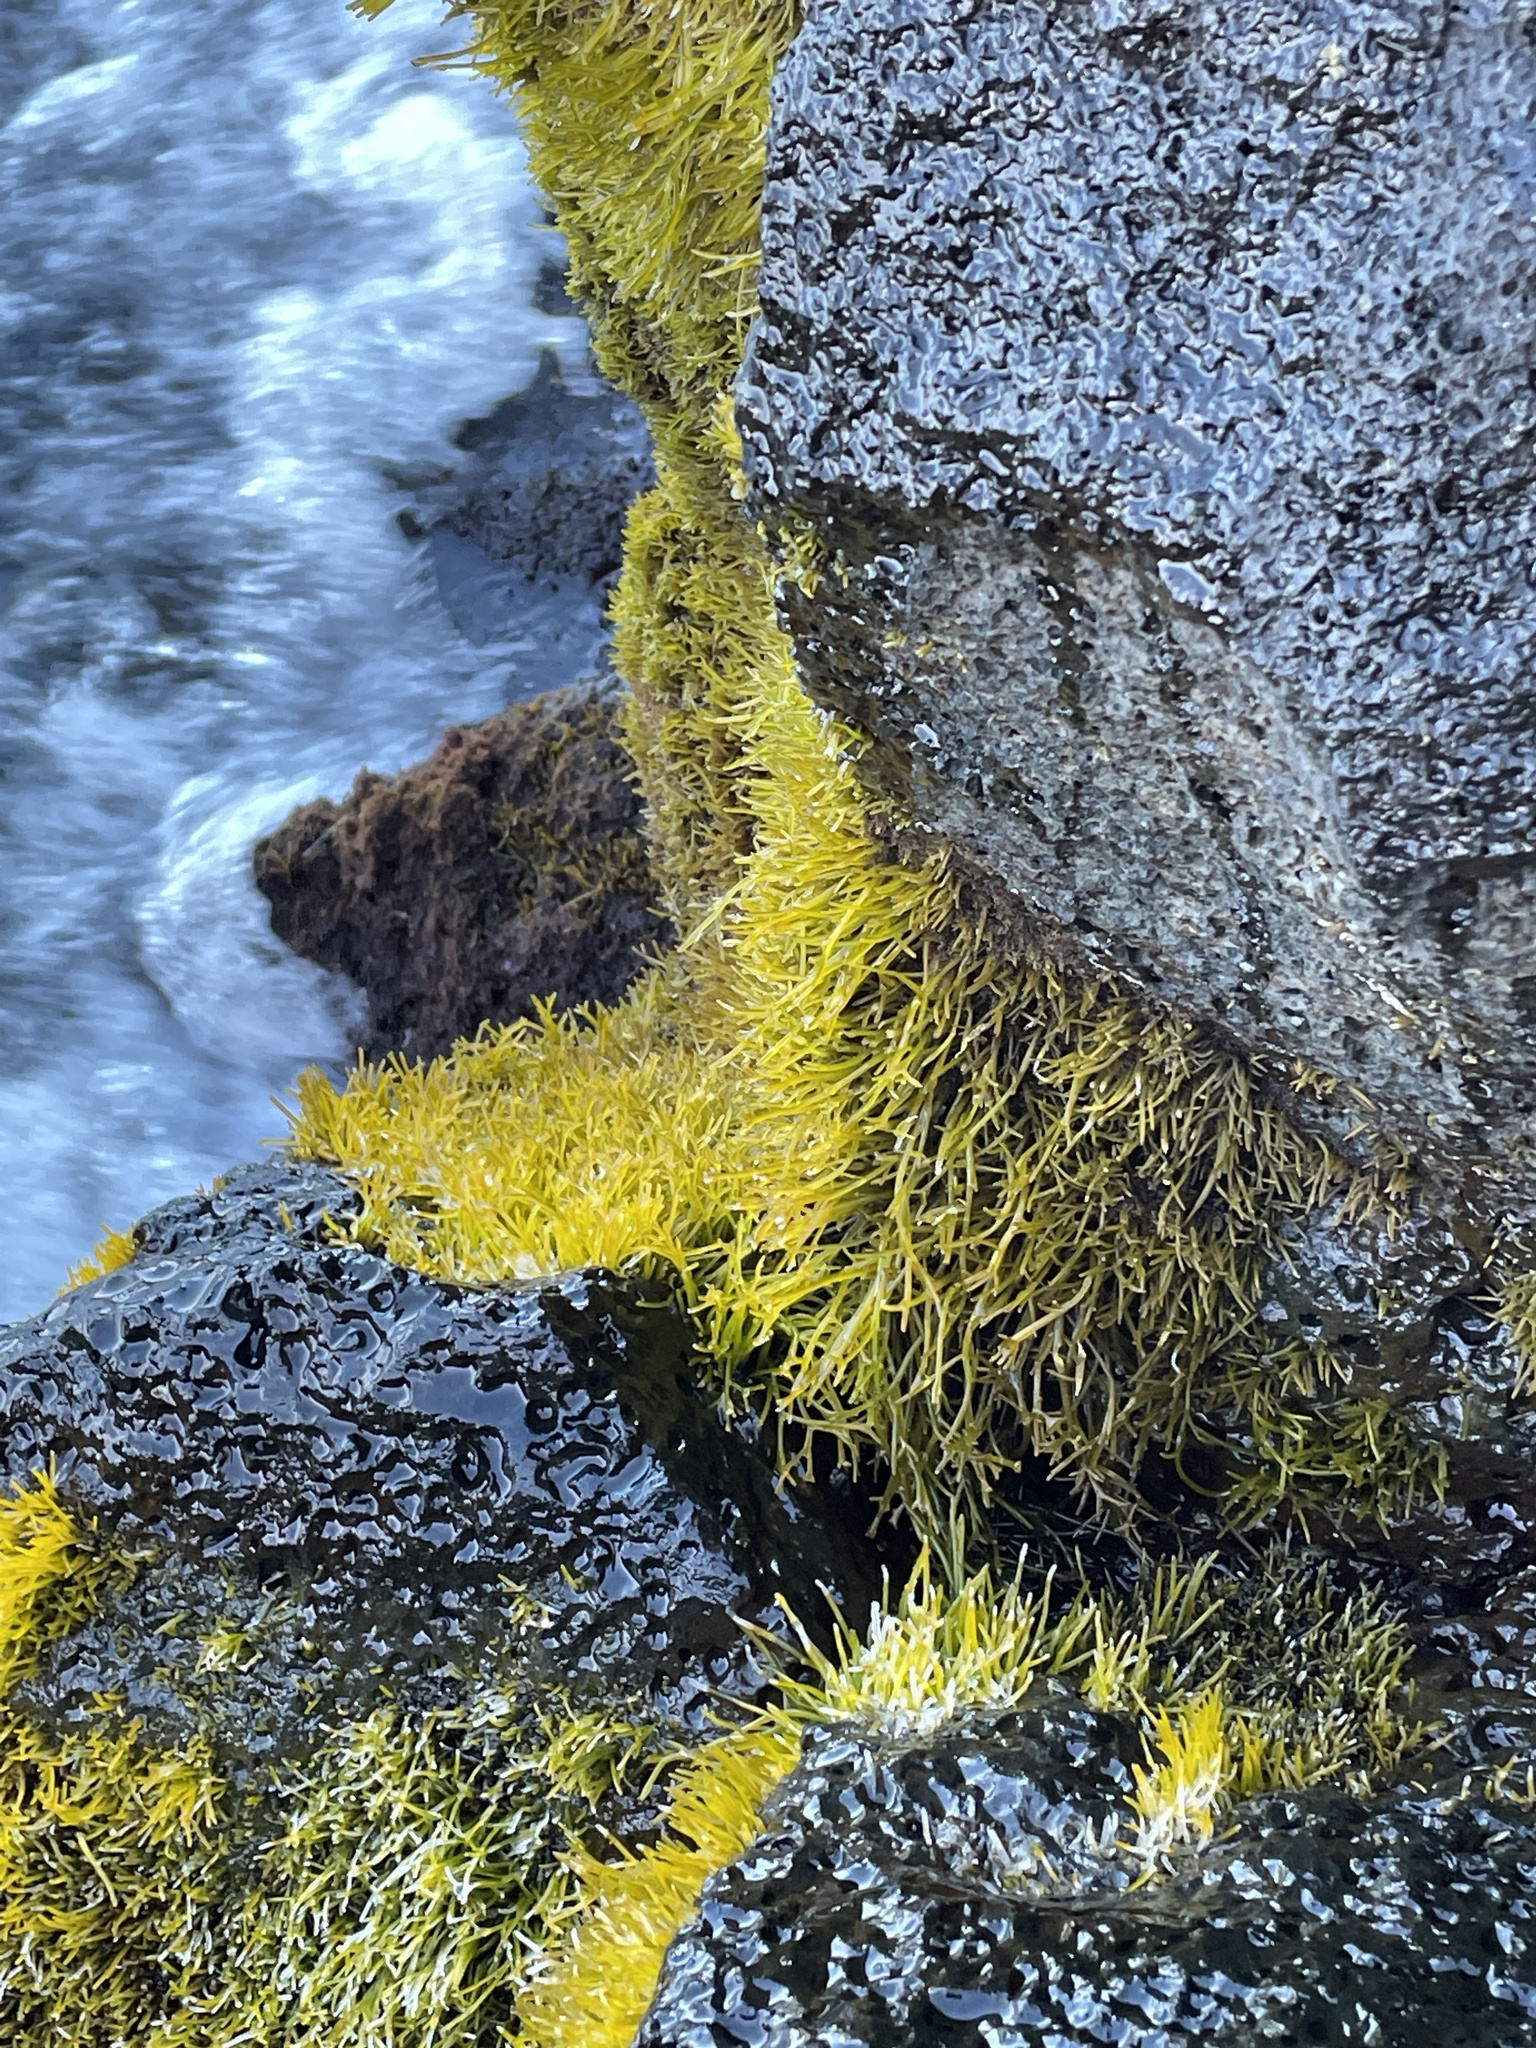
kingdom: Plantae
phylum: Rhodophyta
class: Florideophyceae
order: Gigartinales
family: Phyllophoraceae
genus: Gymnogongrus
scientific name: Gymnogongrus durvillei
